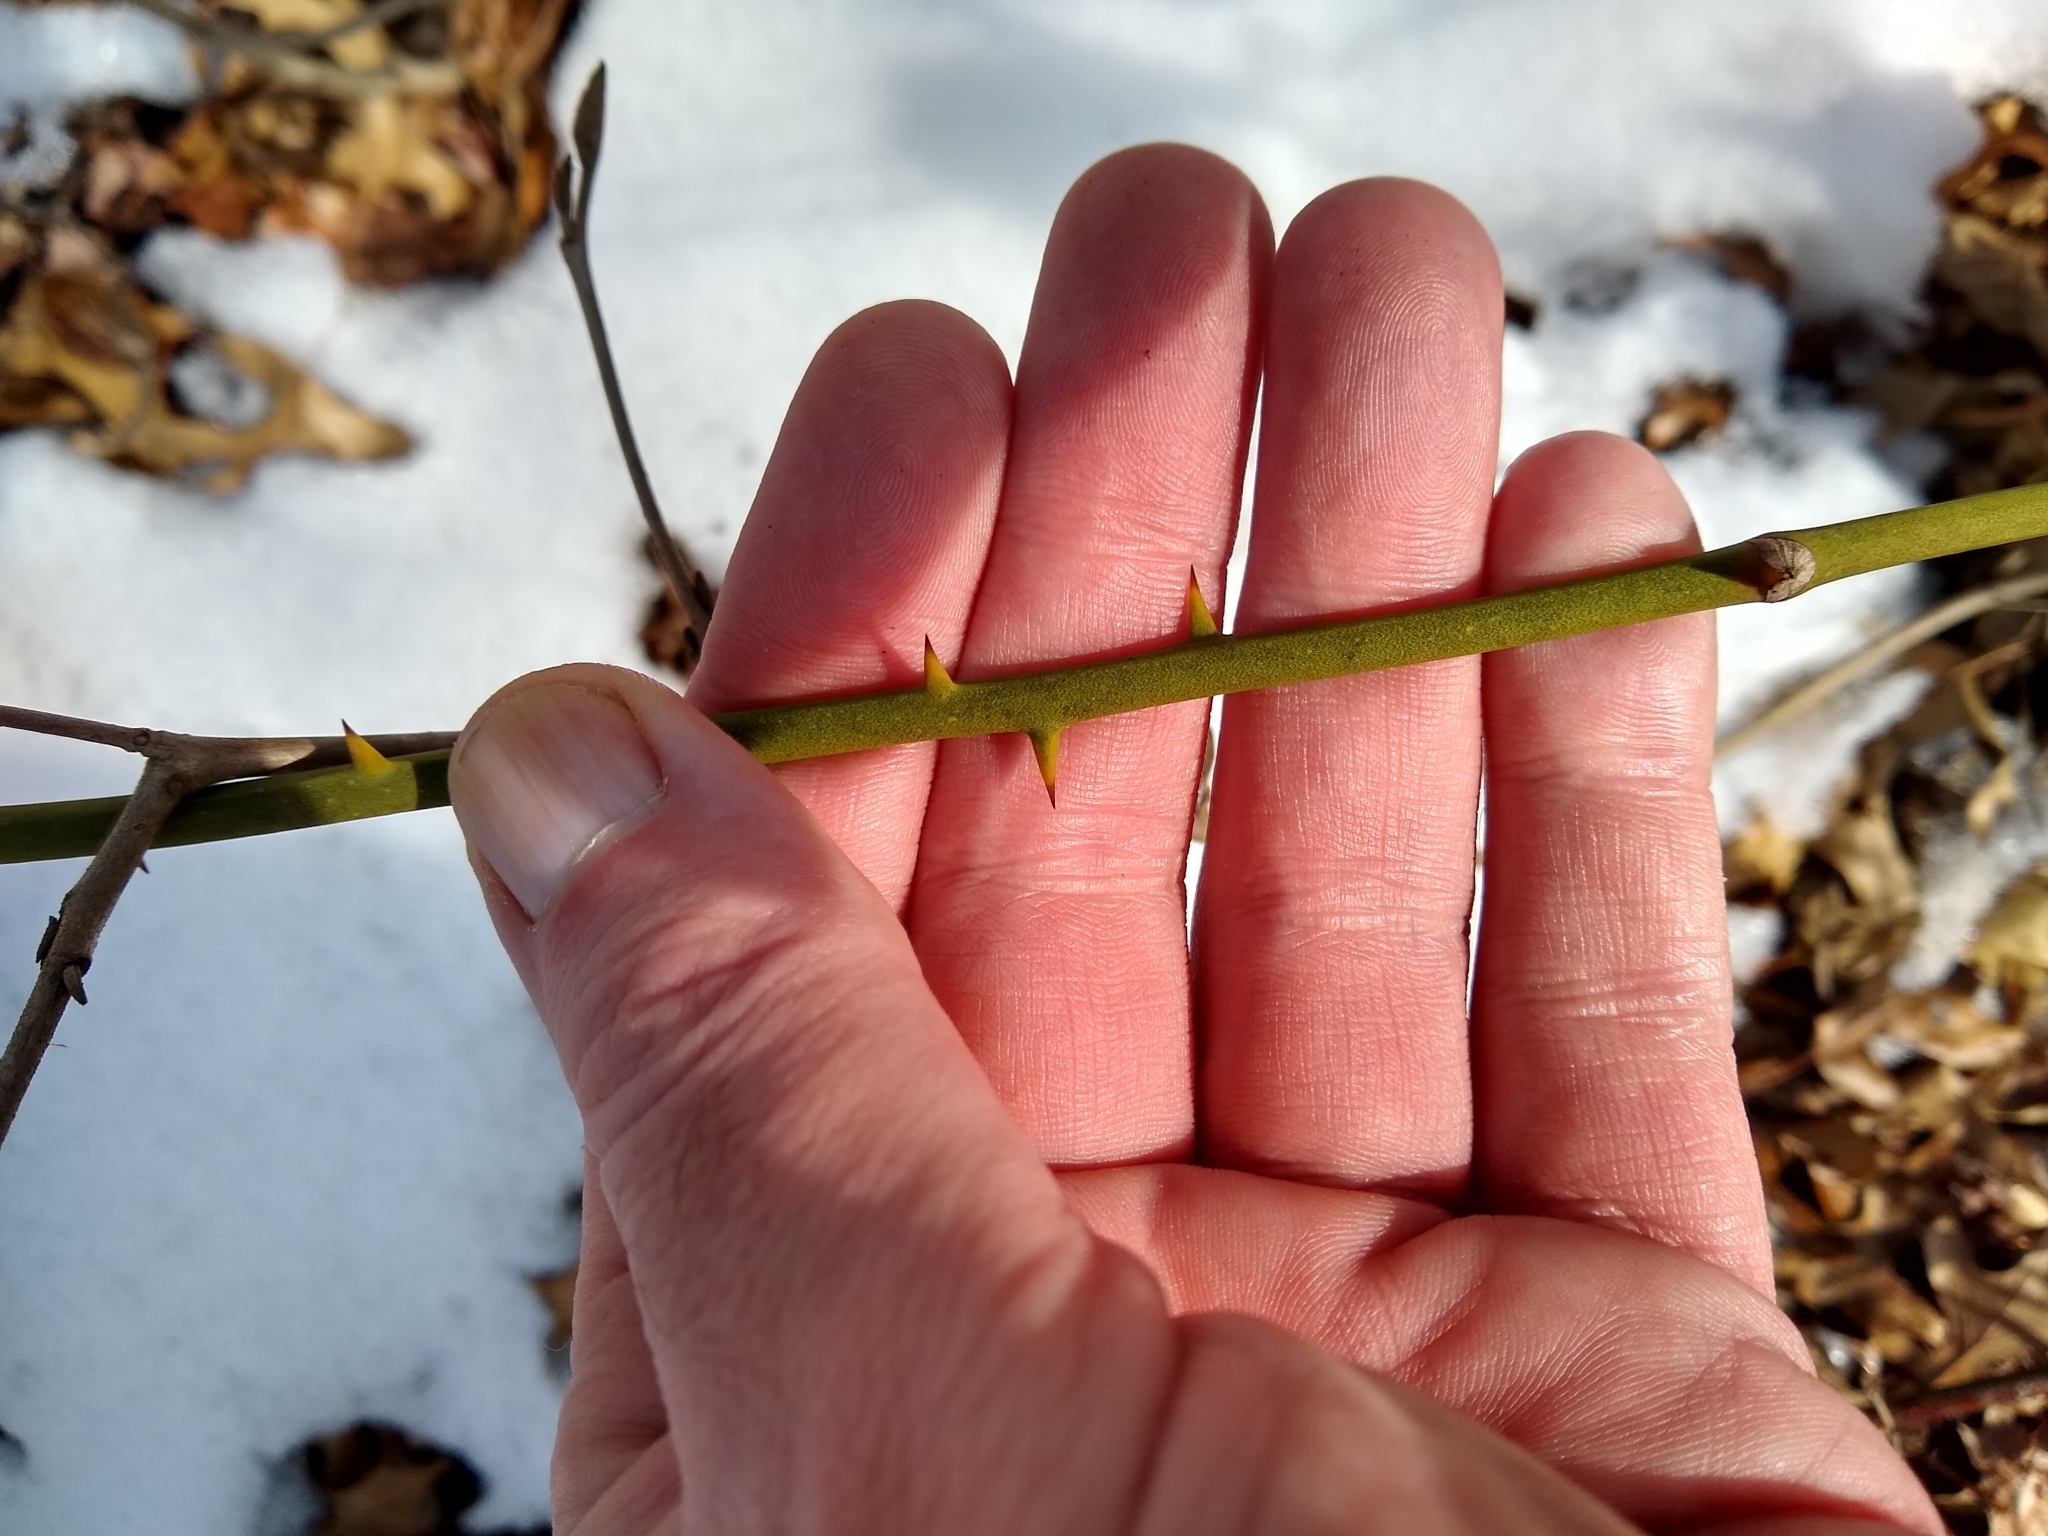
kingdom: Plantae
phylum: Tracheophyta
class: Liliopsida
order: Liliales
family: Smilacaceae
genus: Smilax
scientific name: Smilax rotundifolia
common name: Bullbriar
